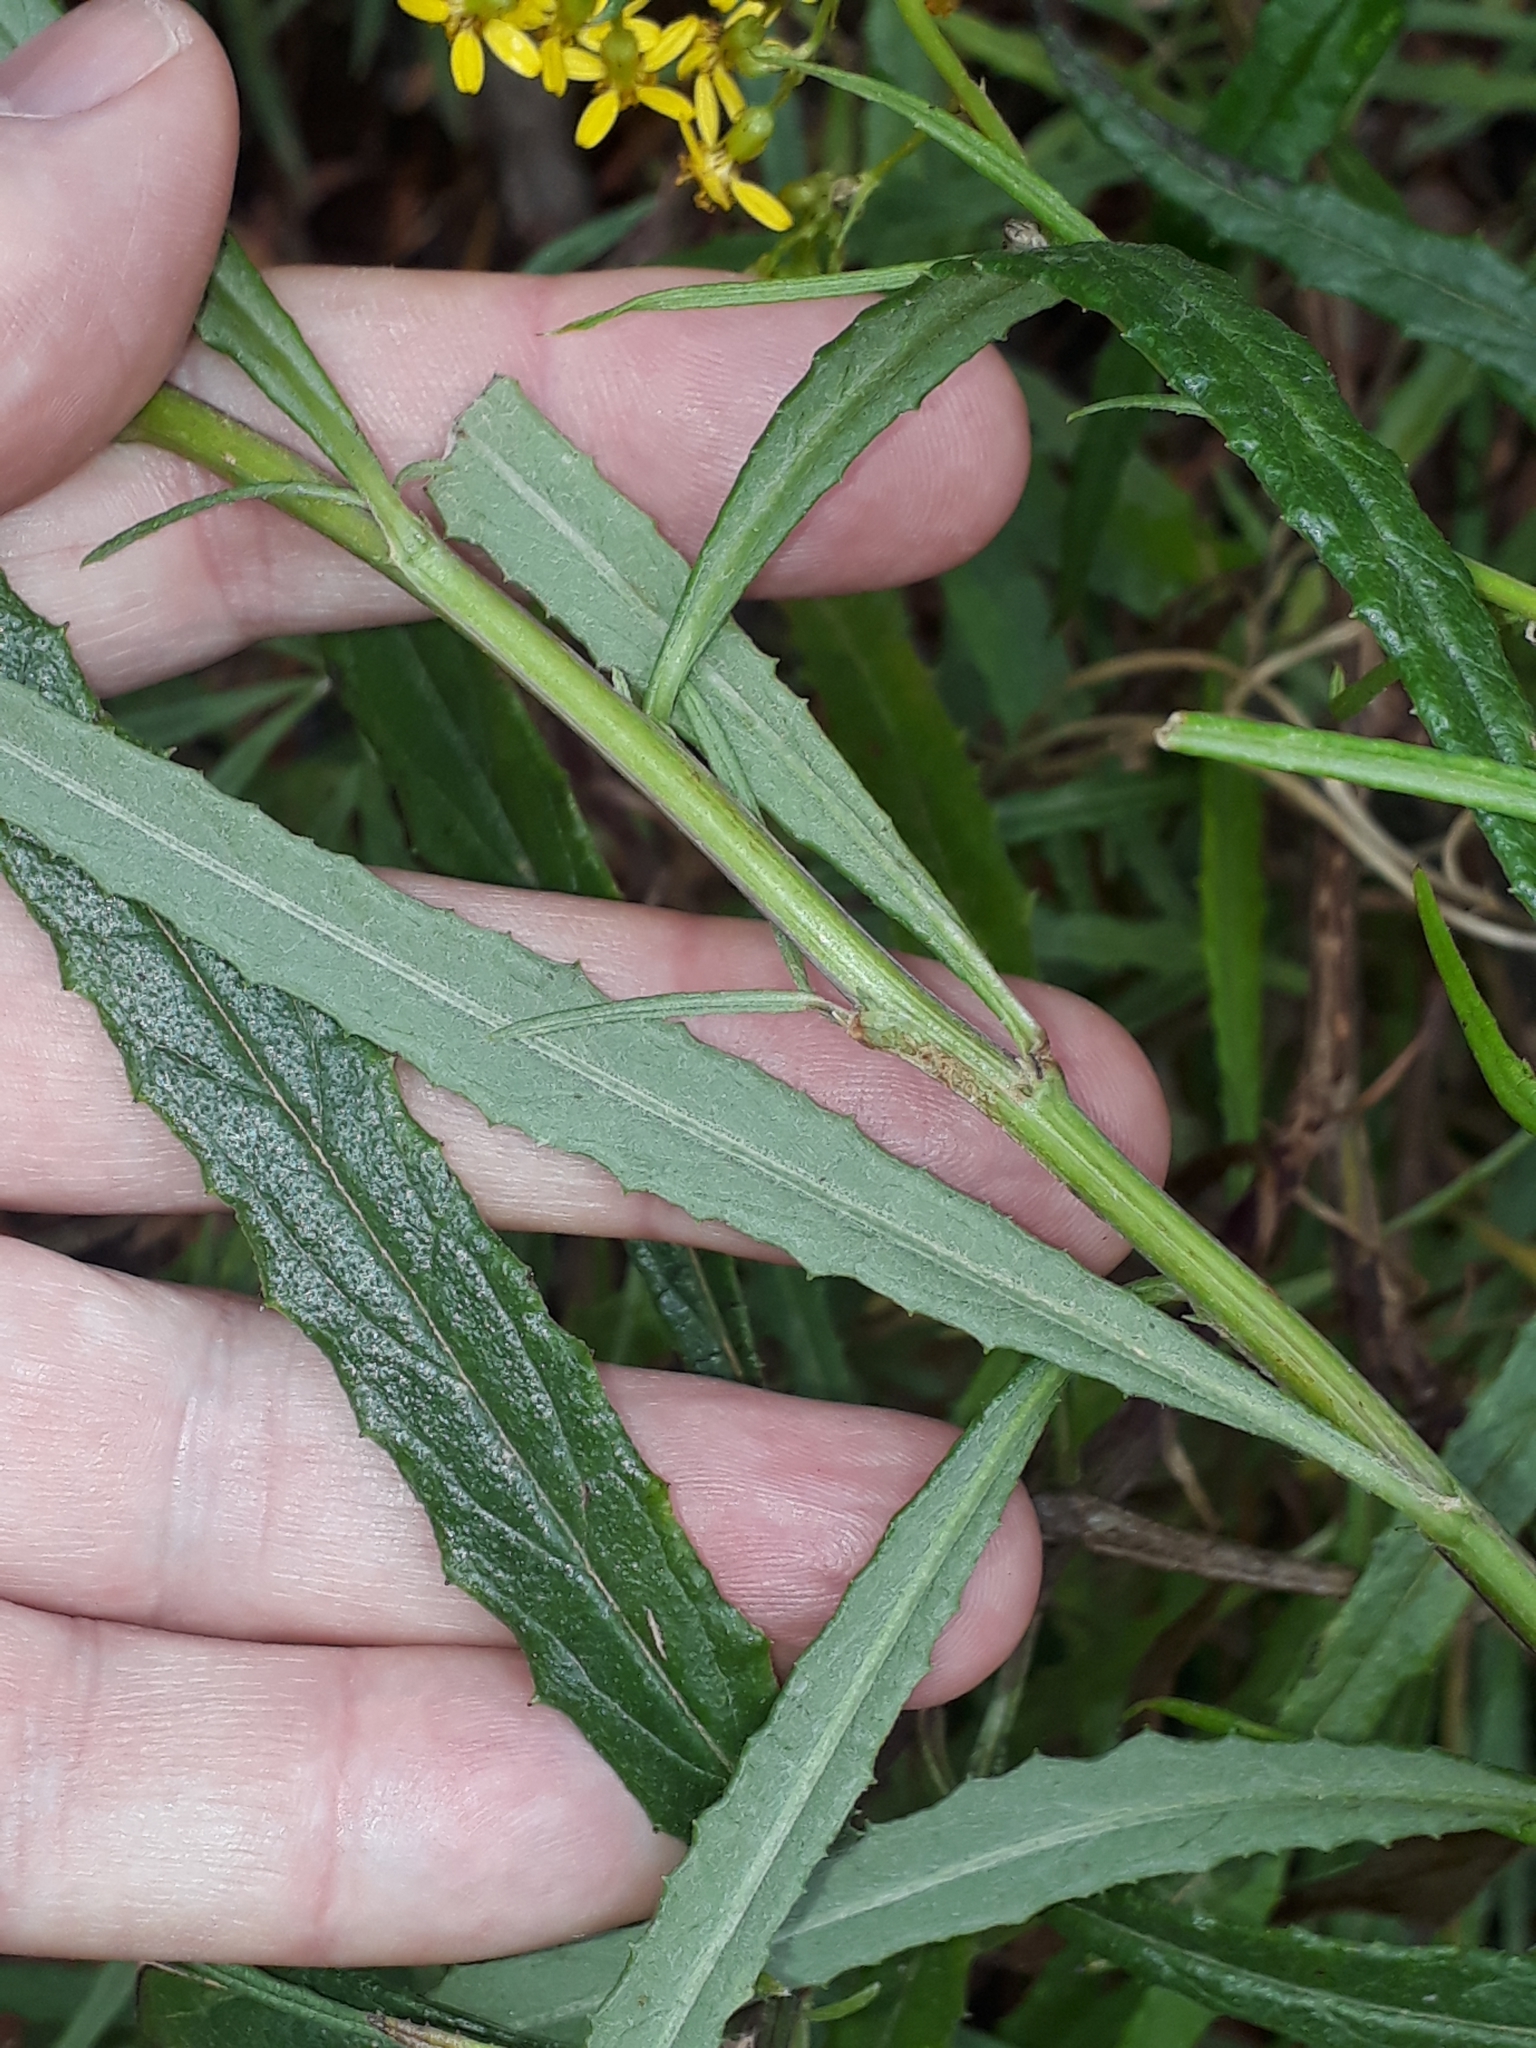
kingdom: Plantae
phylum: Tracheophyta
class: Magnoliopsida
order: Asterales
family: Asteraceae
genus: Senecio
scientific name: Senecio linearifolius
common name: Fireweed groundsel
